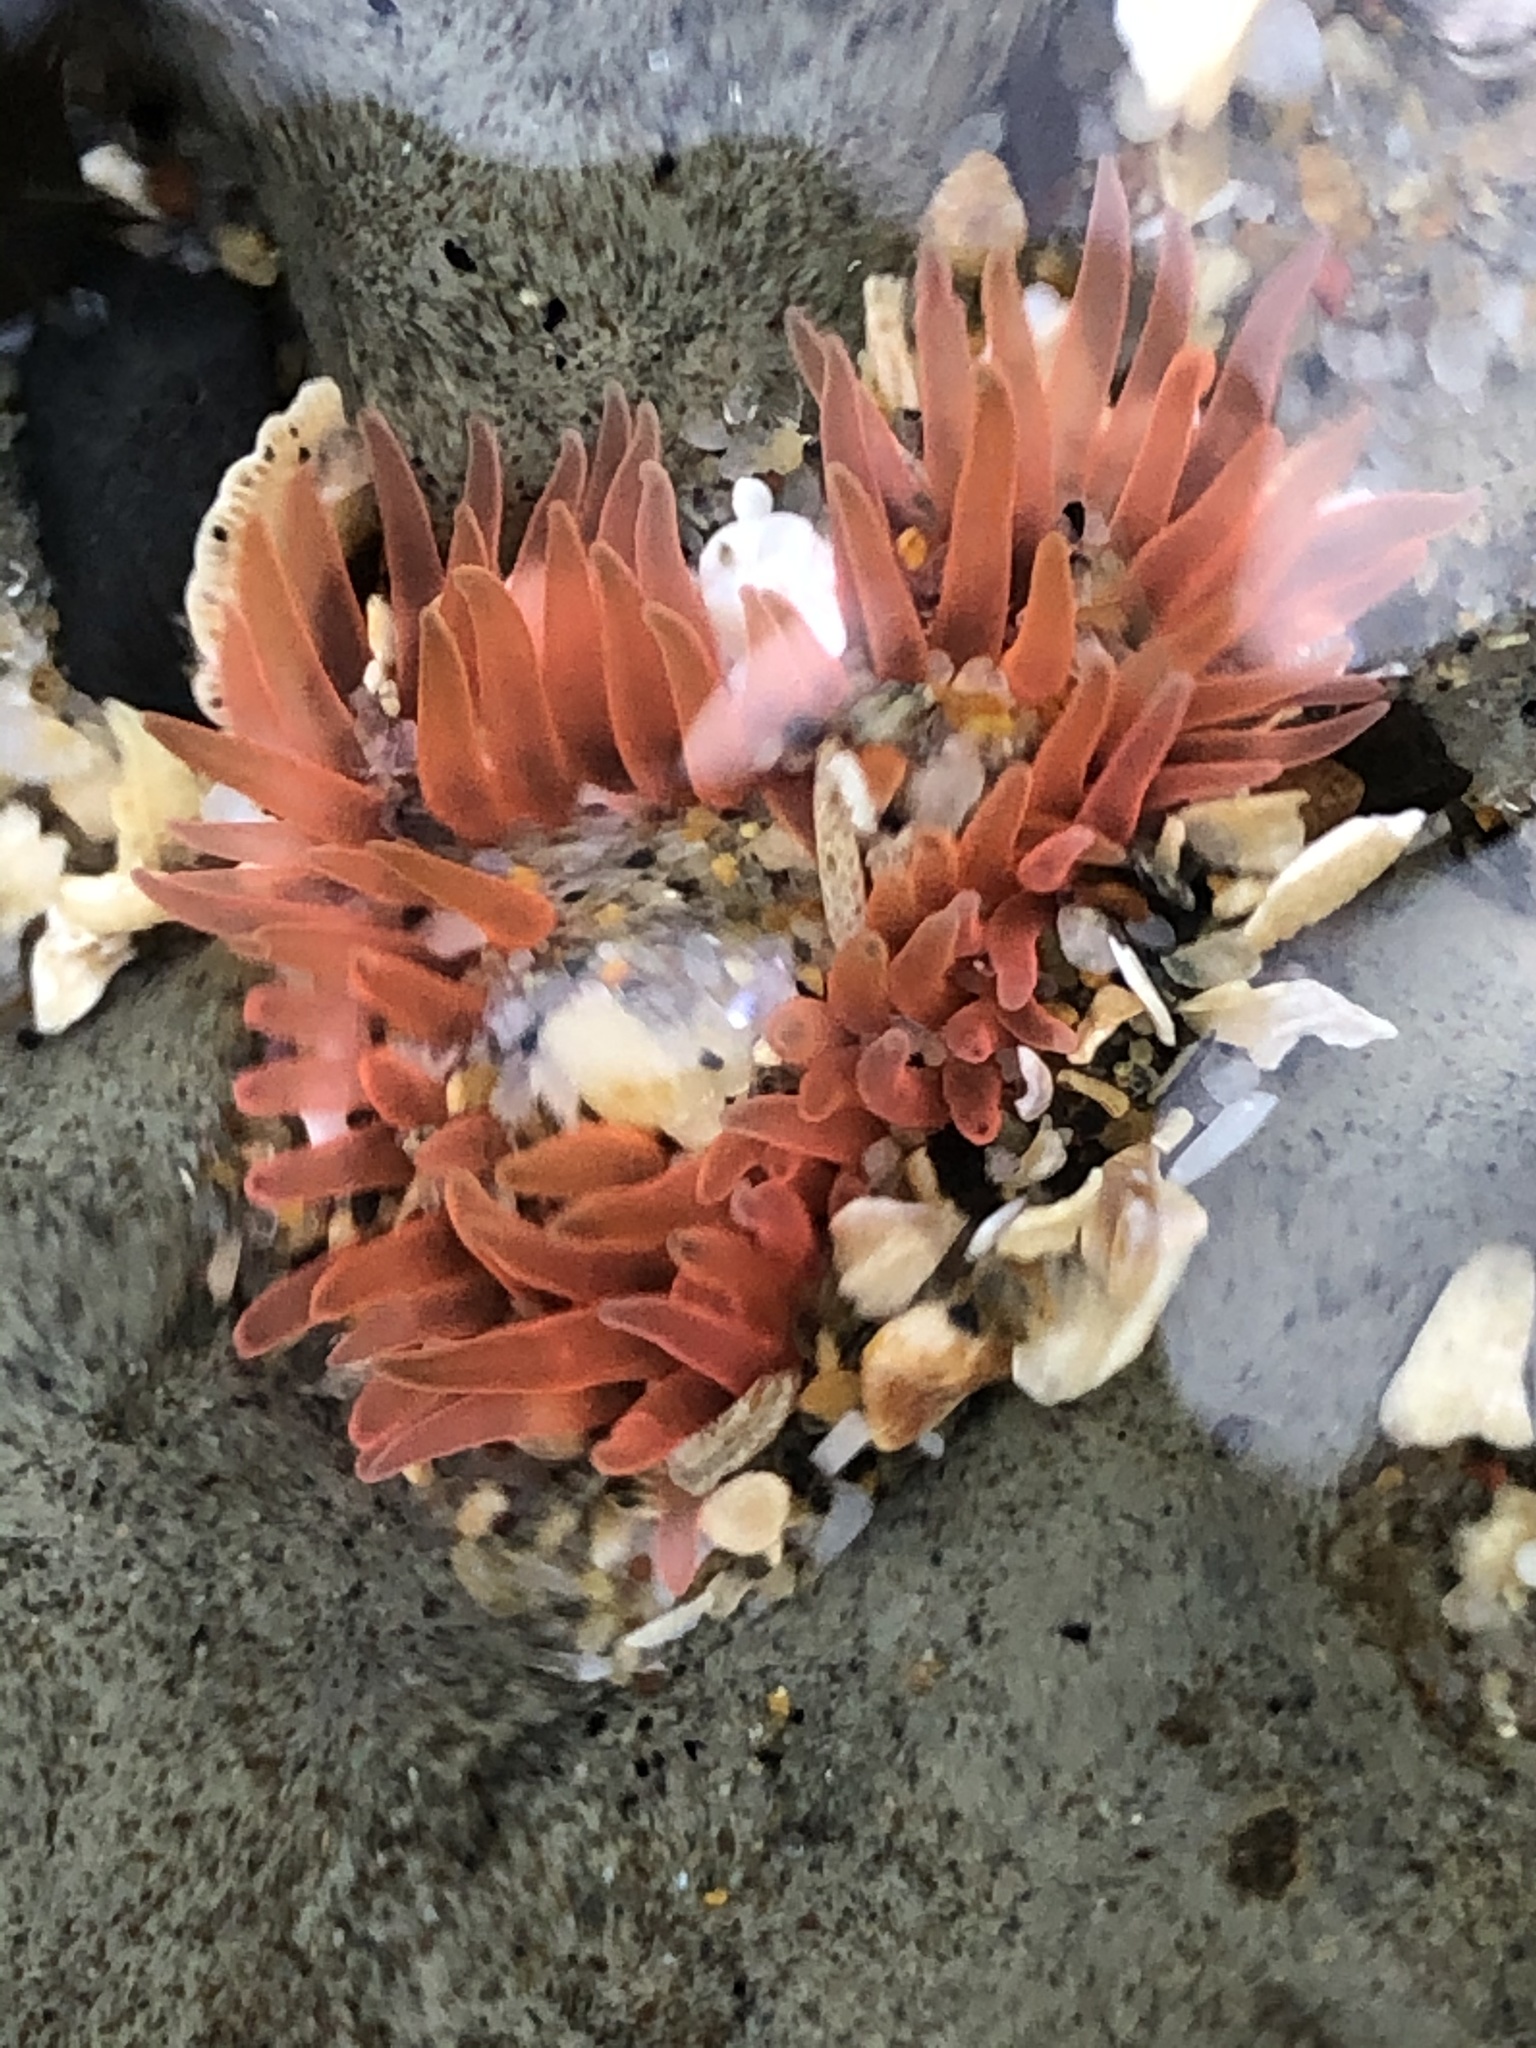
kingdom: Animalia
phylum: Cnidaria
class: Anthozoa
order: Actiniaria
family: Actiniidae
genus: Anthopleura
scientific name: Anthopleura artemisia
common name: Buried sea anemone
